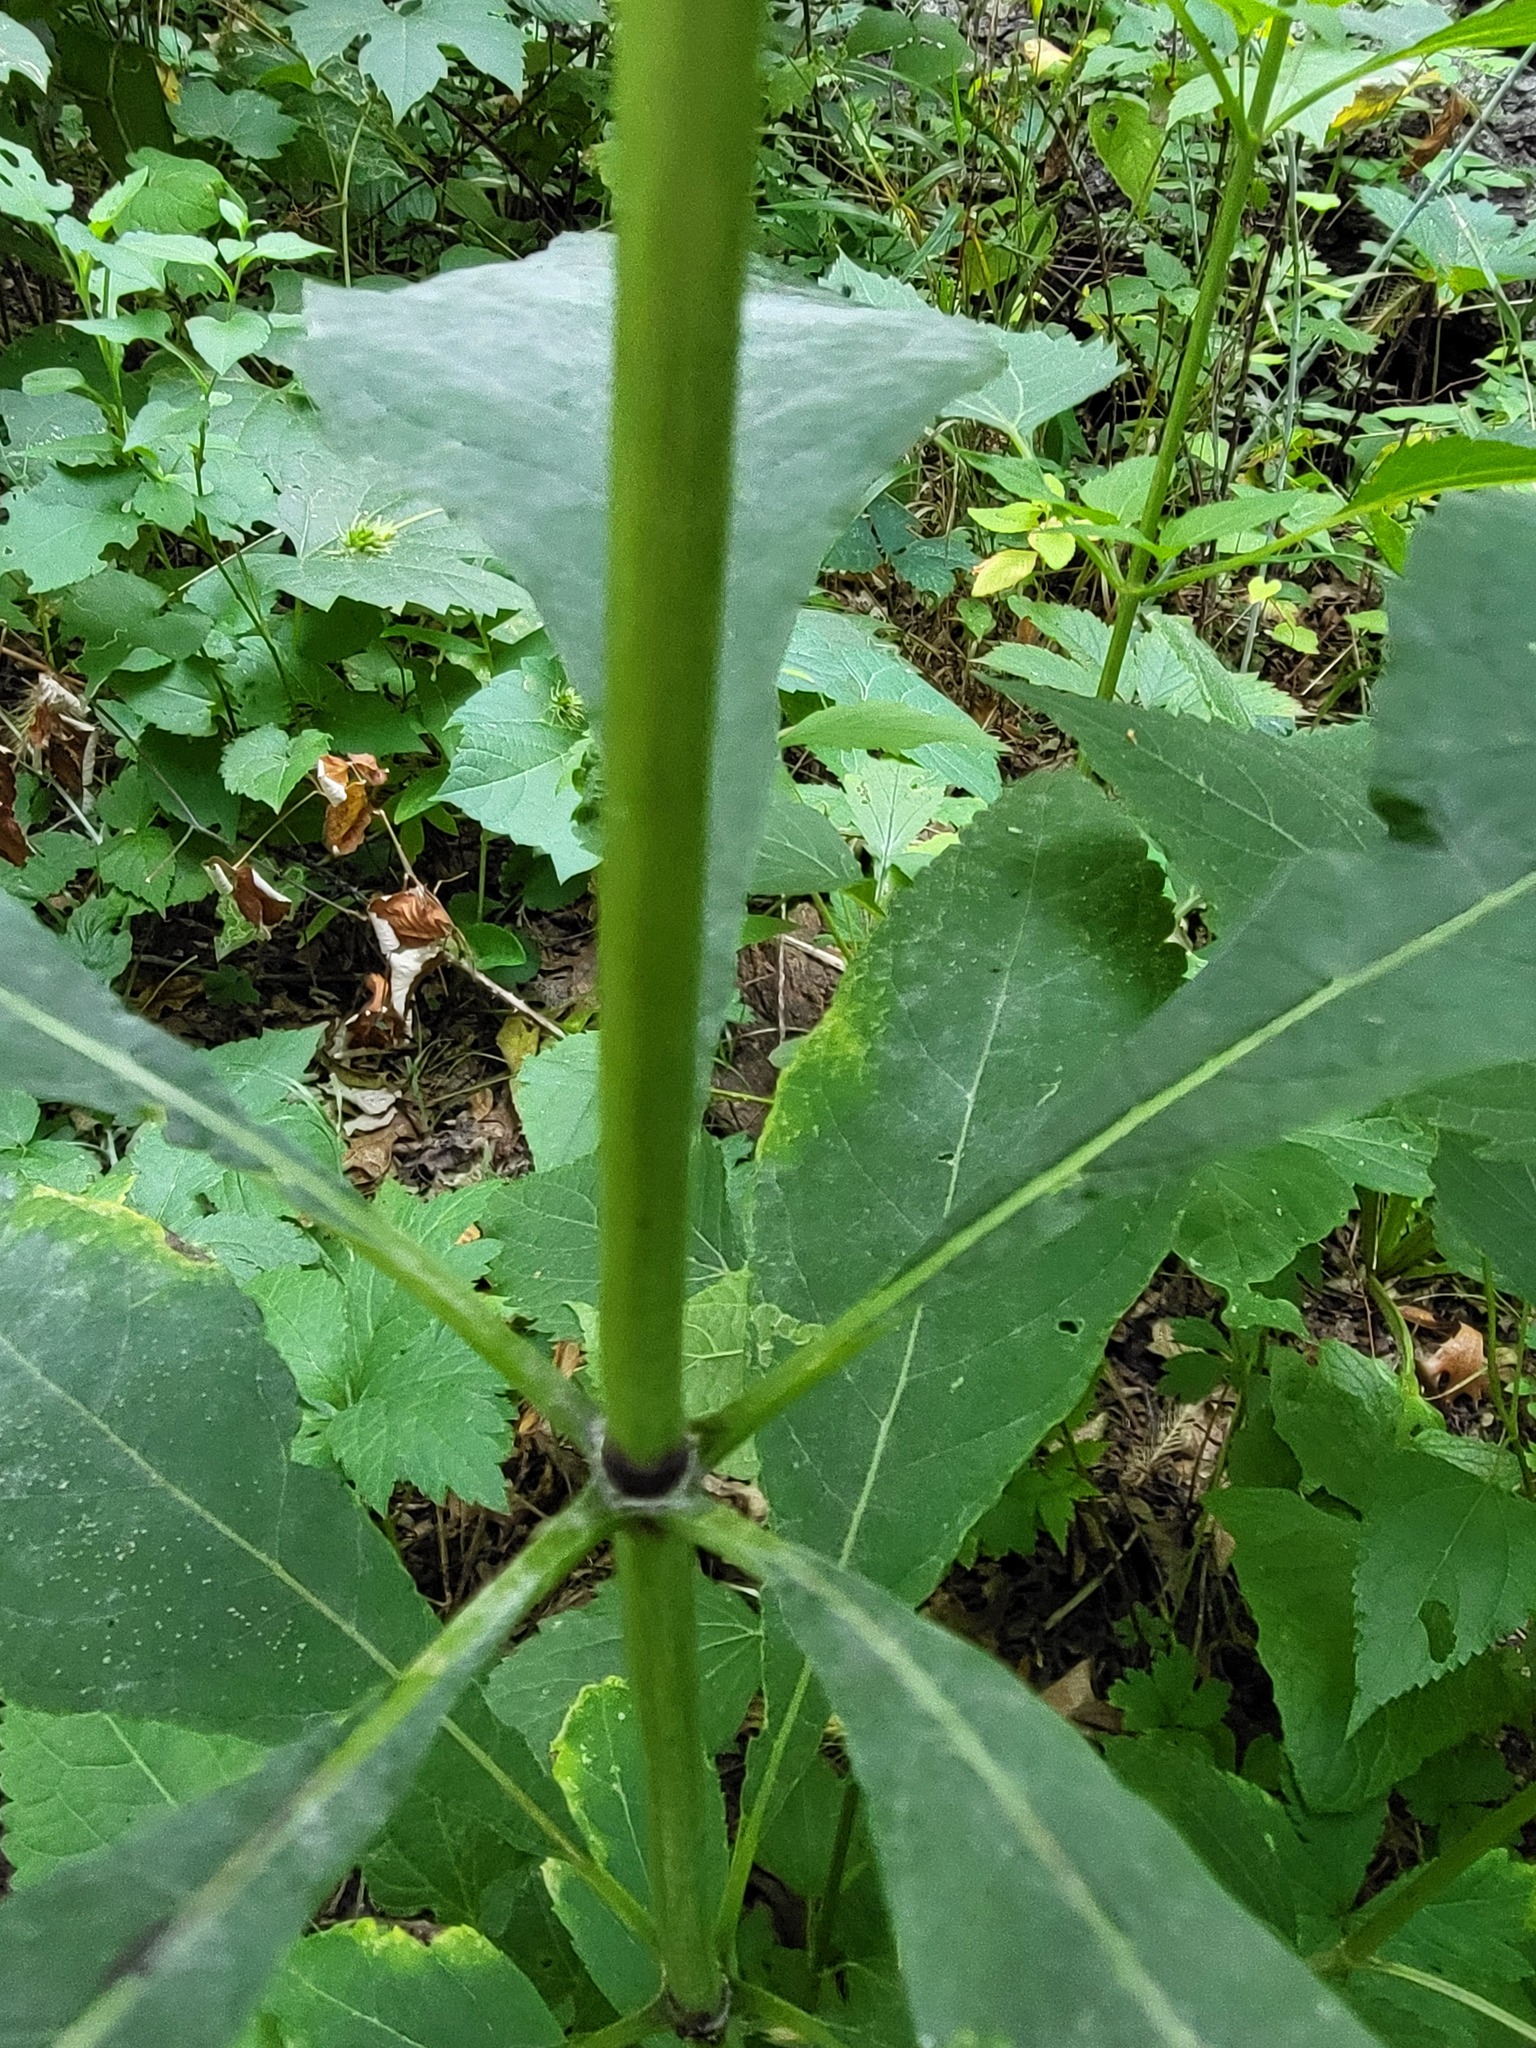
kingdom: Plantae
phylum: Tracheophyta
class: Magnoliopsida
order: Asterales
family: Asteraceae
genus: Eutrochium
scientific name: Eutrochium purpureum
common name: Gravelroot
